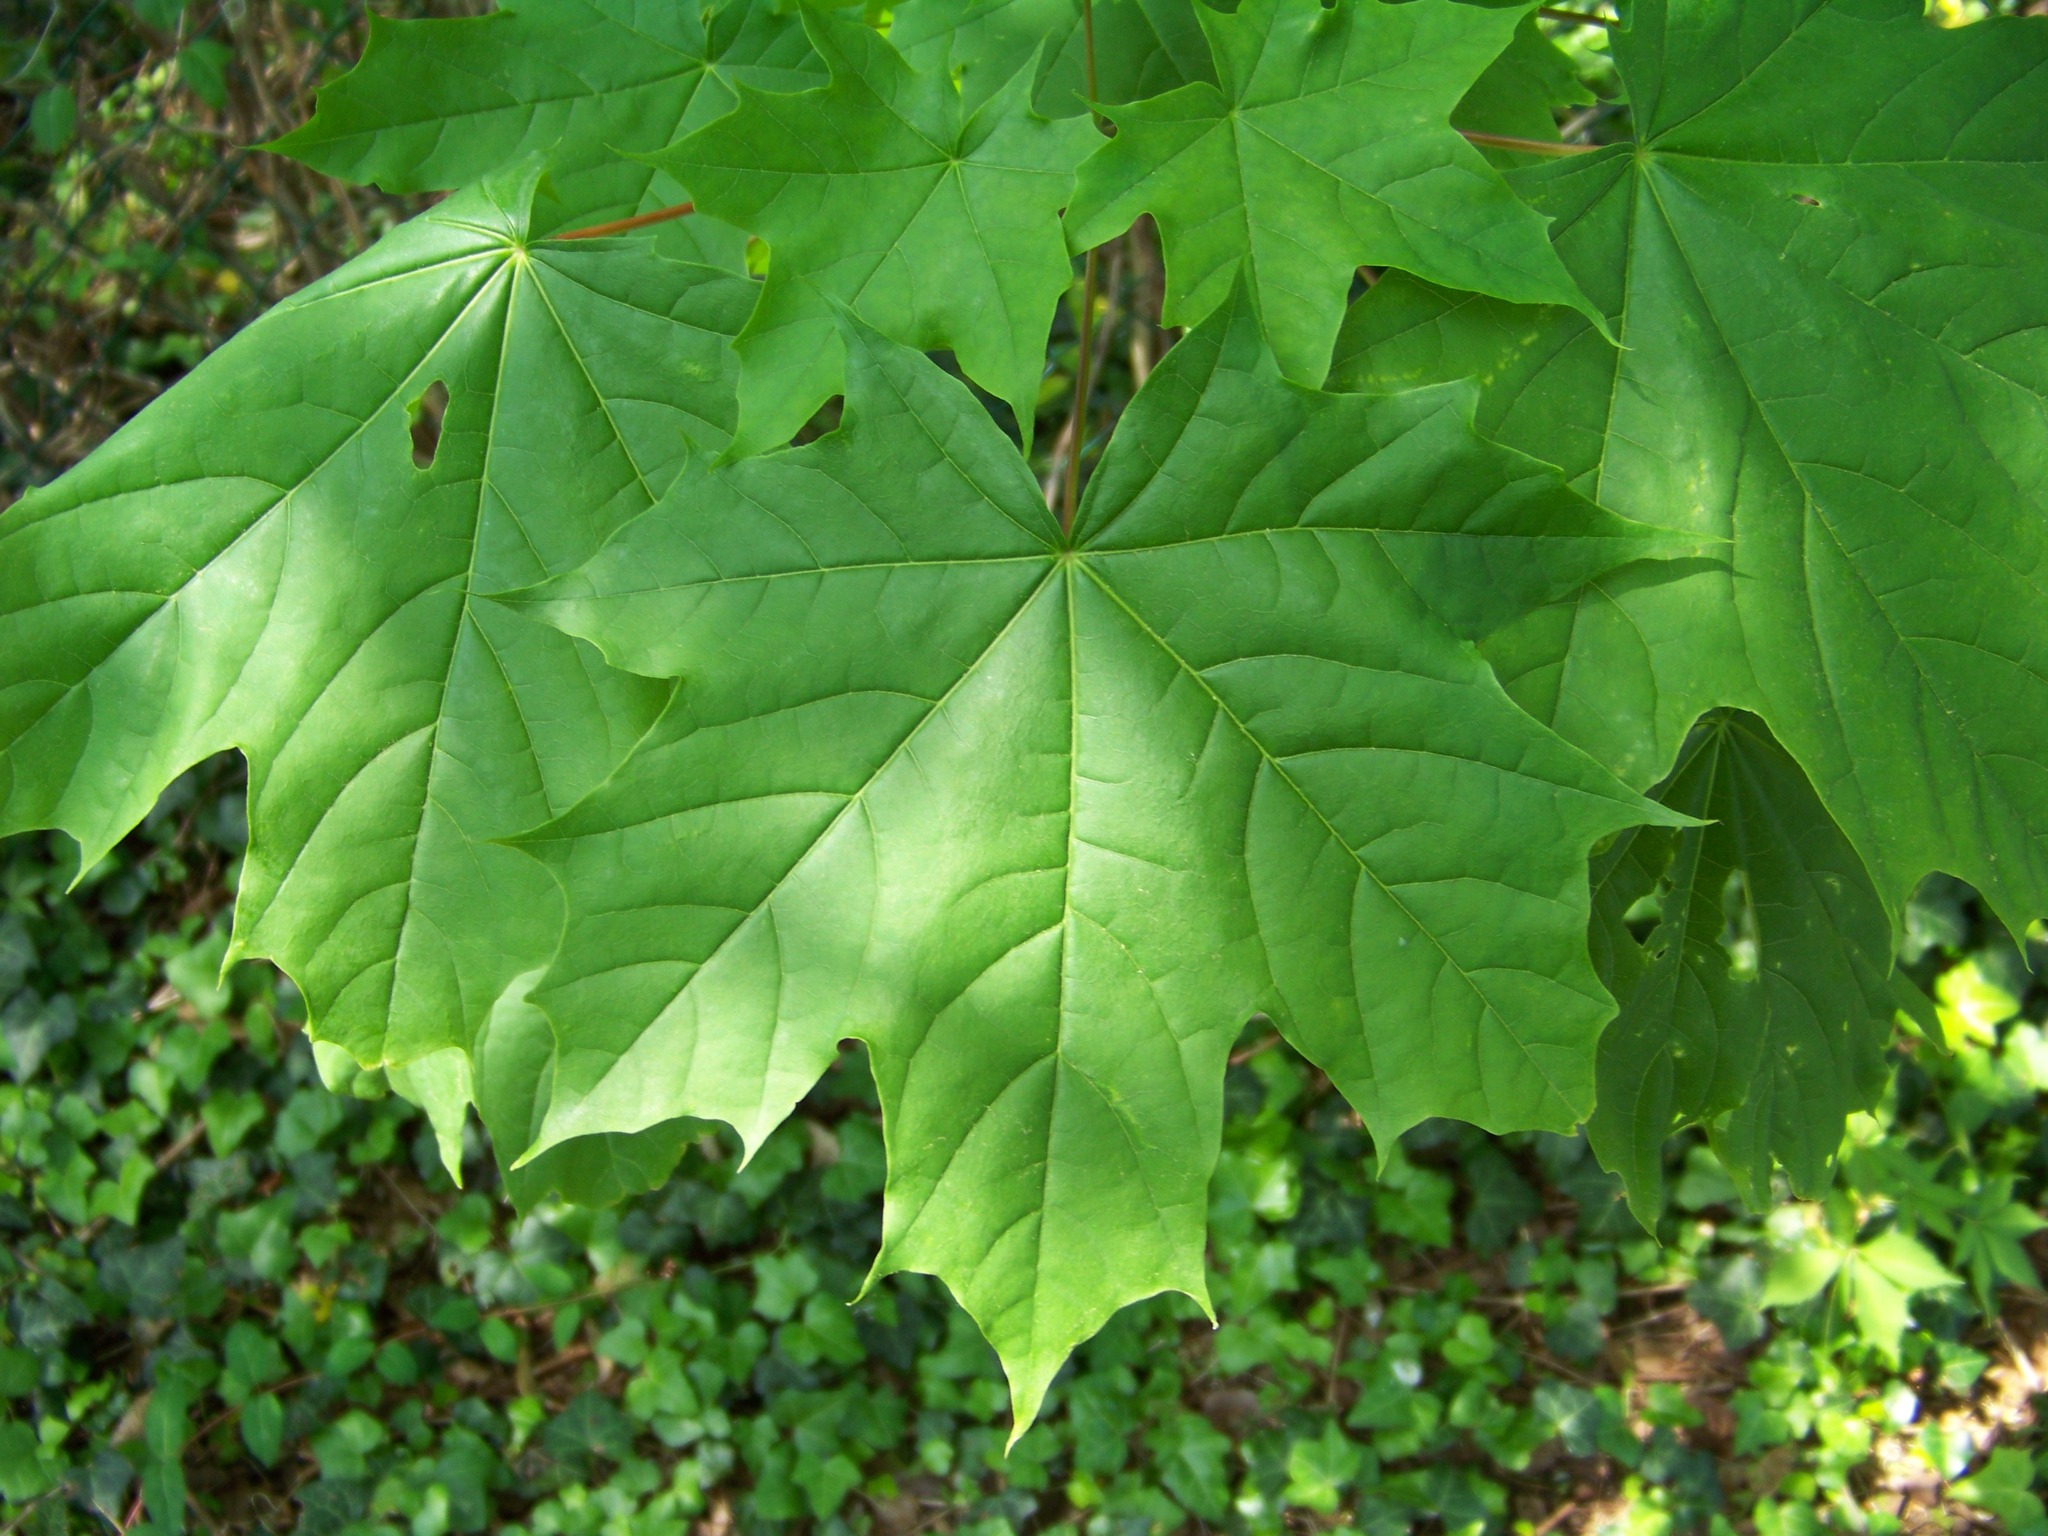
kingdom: Plantae
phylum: Tracheophyta
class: Magnoliopsida
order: Sapindales
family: Sapindaceae
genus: Acer
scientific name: Acer platanoides
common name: Norway maple
